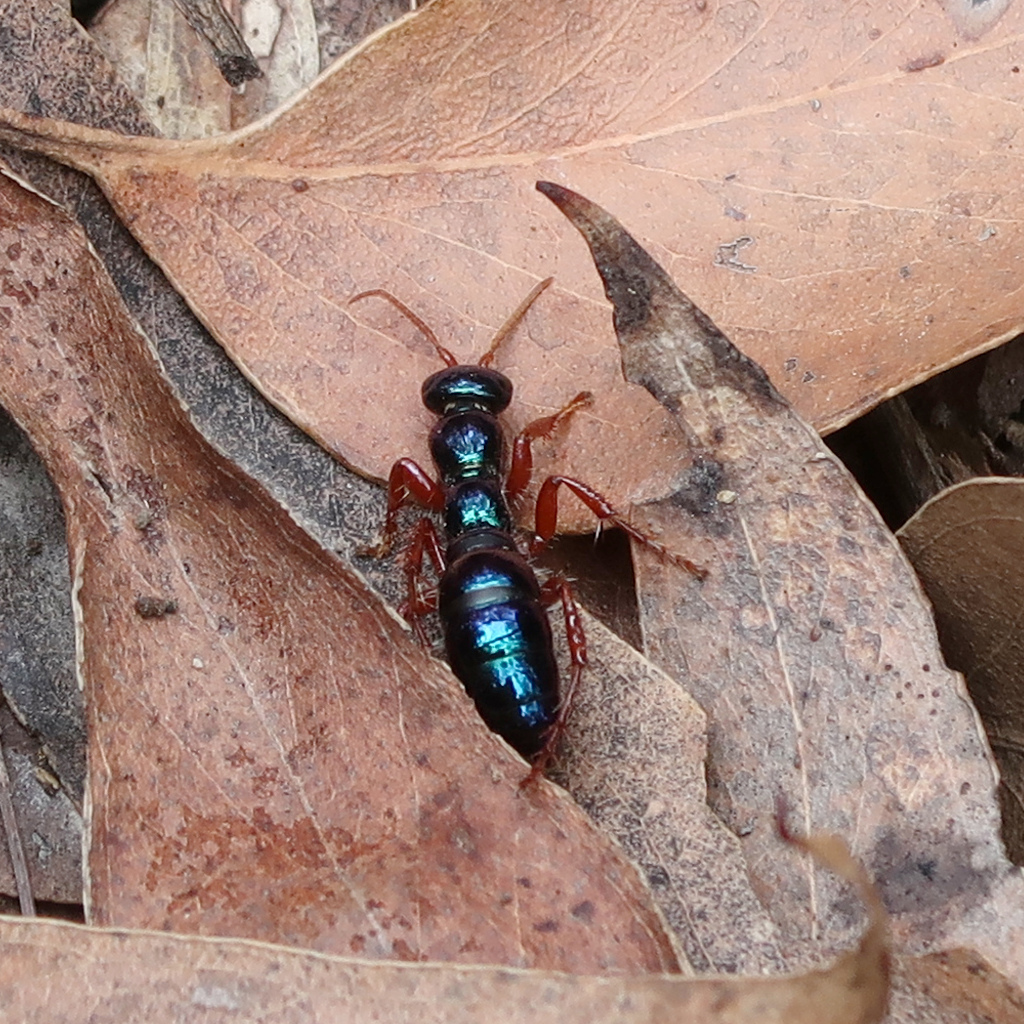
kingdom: Animalia
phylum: Arthropoda
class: Insecta
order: Hymenoptera
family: Tiphiidae
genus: Diamma
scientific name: Diamma
